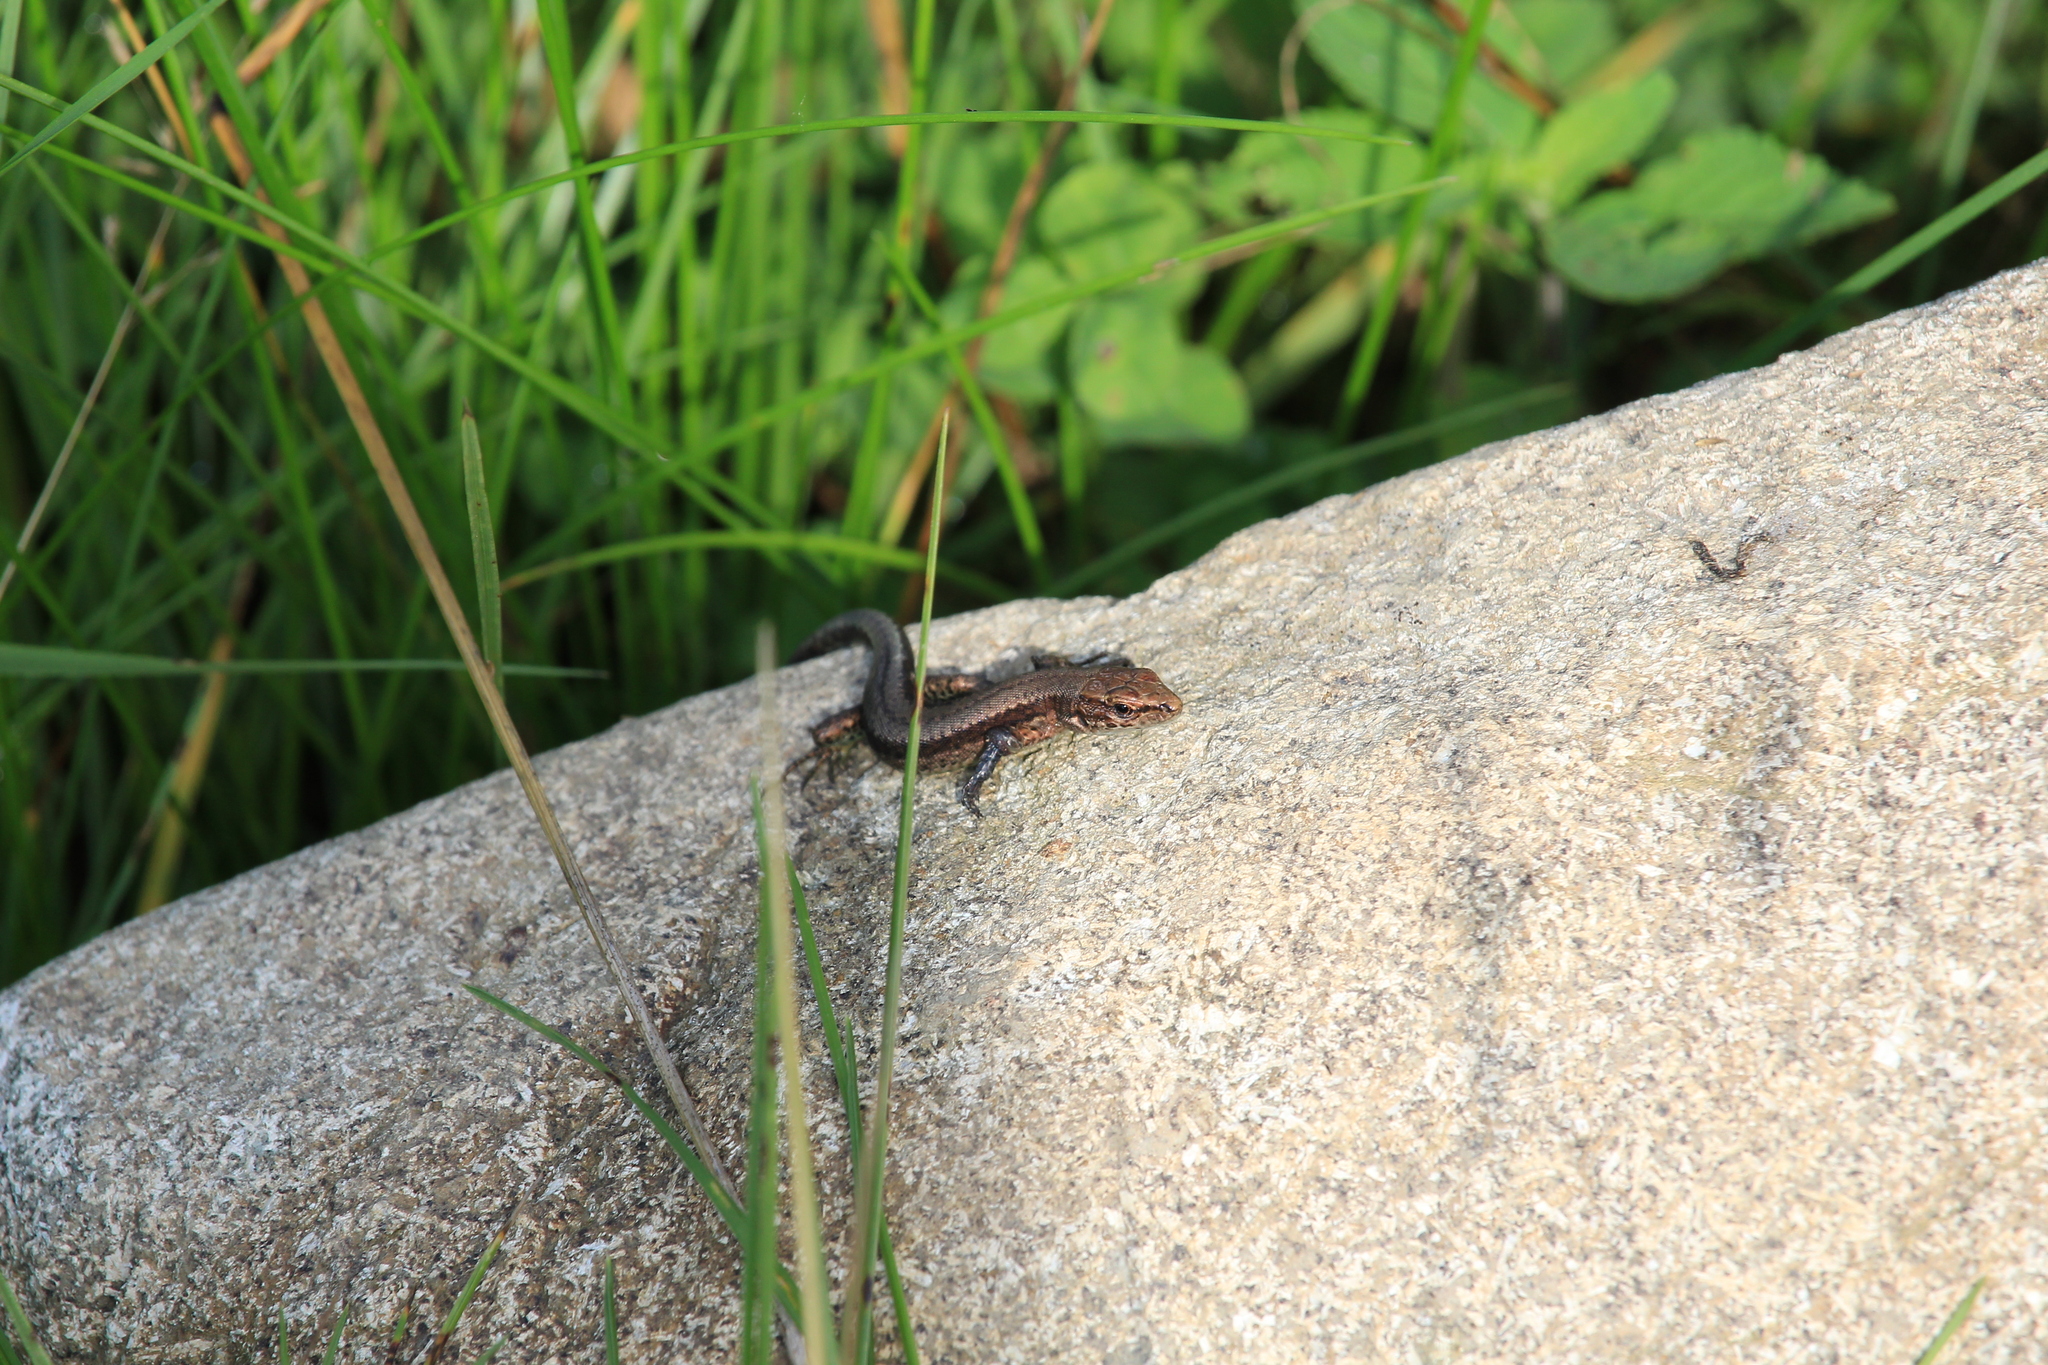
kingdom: Animalia
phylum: Chordata
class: Squamata
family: Lacertidae
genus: Darevskia
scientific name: Darevskia derjugini
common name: Derjugin's lizard
